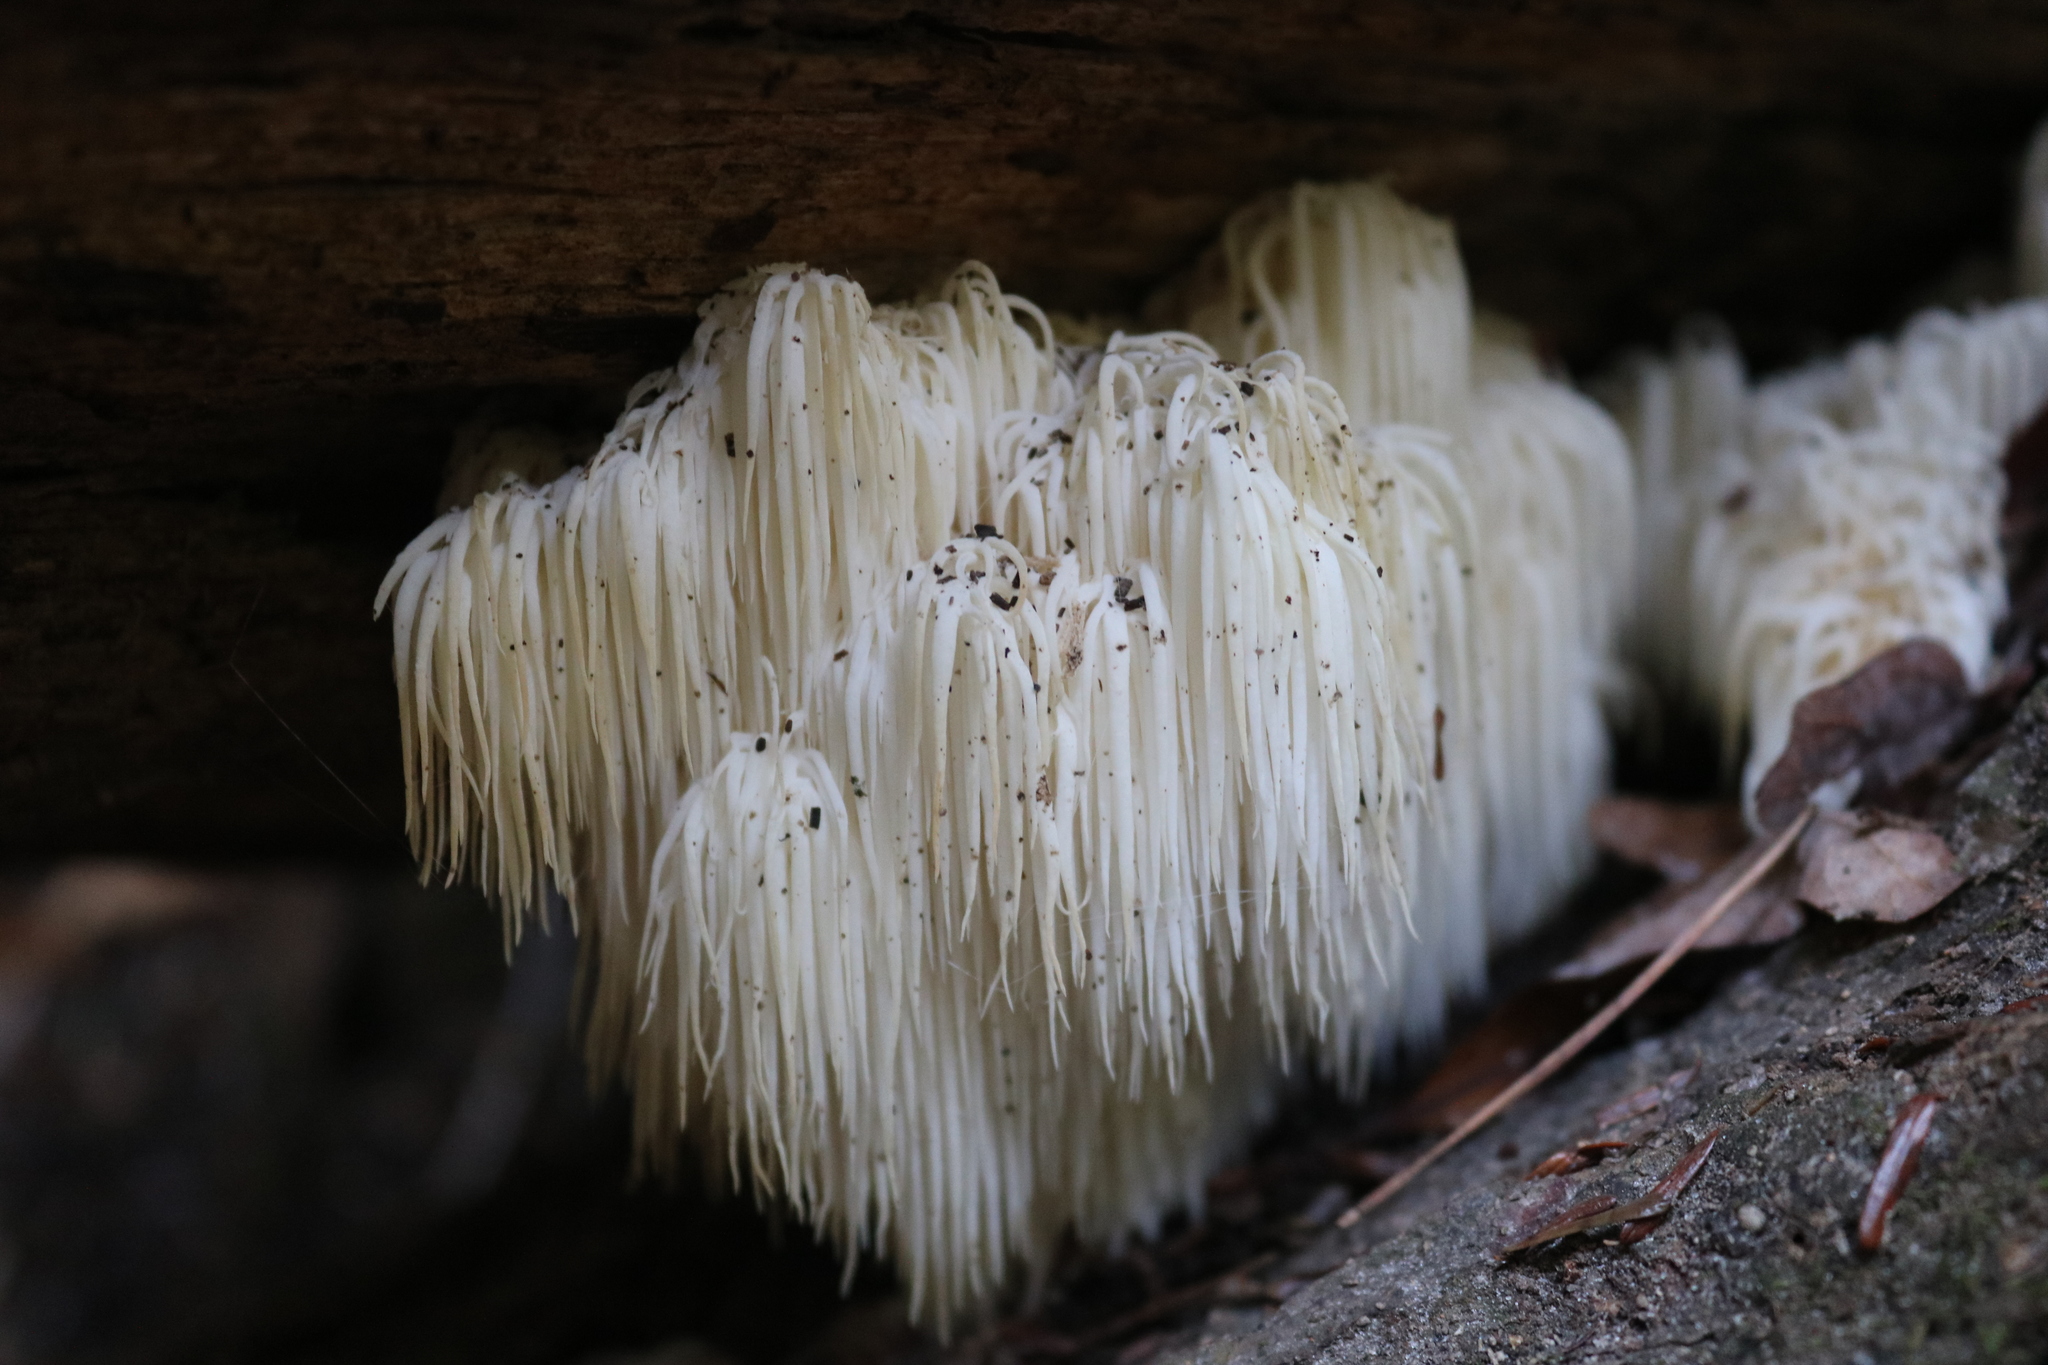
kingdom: Fungi
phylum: Basidiomycota
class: Agaricomycetes
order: Russulales
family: Hericiaceae
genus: Hericium
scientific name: Hericium americanum
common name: Bear's head tooth
